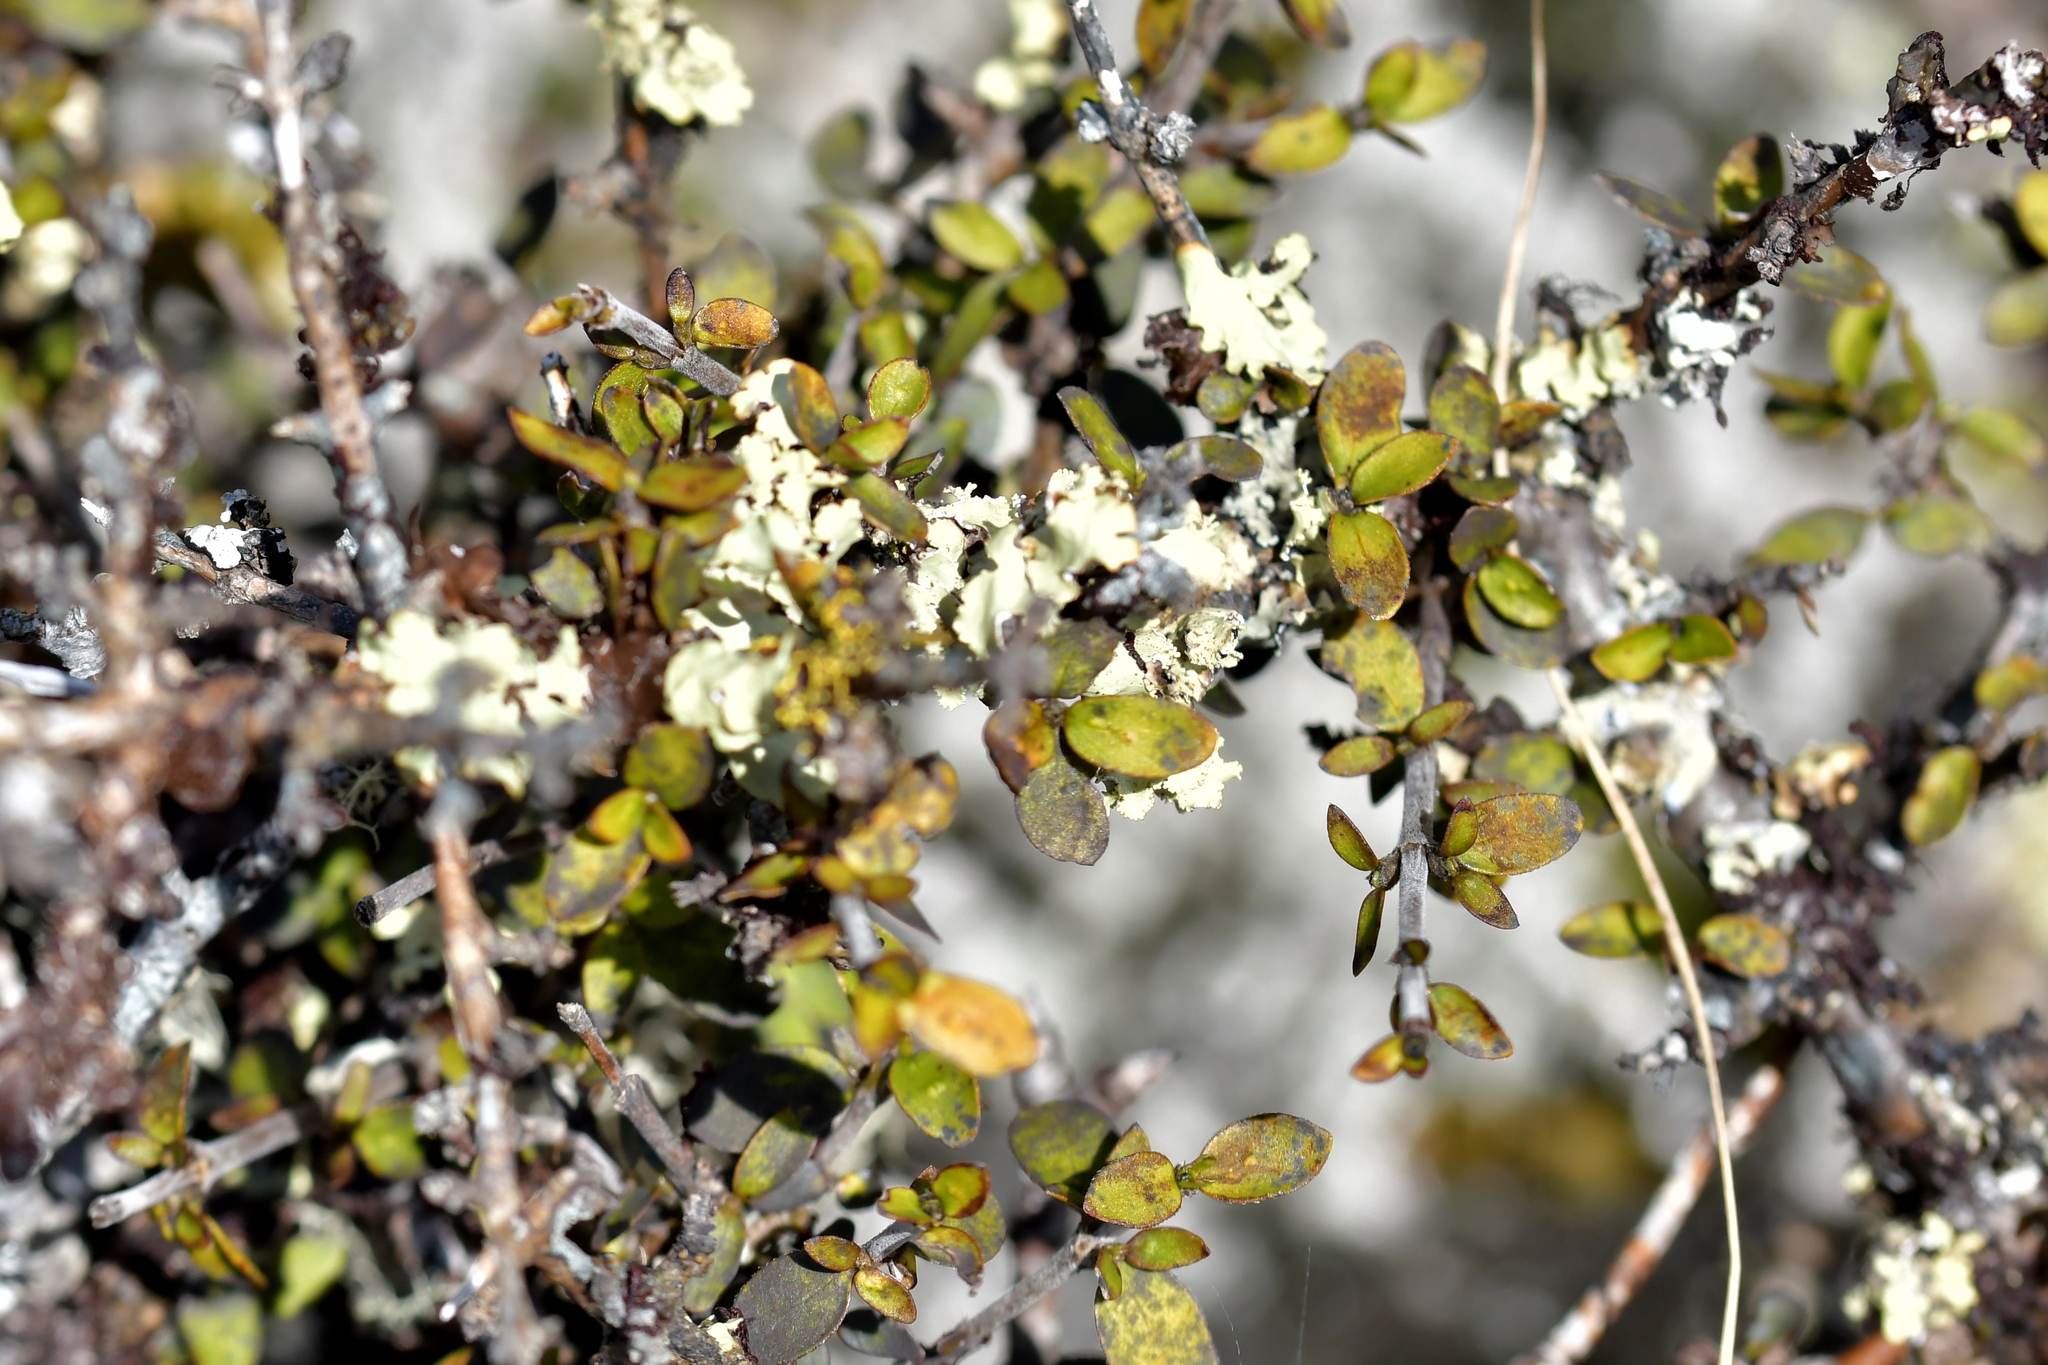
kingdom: Plantae
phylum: Tracheophyta
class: Magnoliopsida
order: Gentianales
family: Rubiaceae
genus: Coprosma
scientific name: Coprosma dumosa
